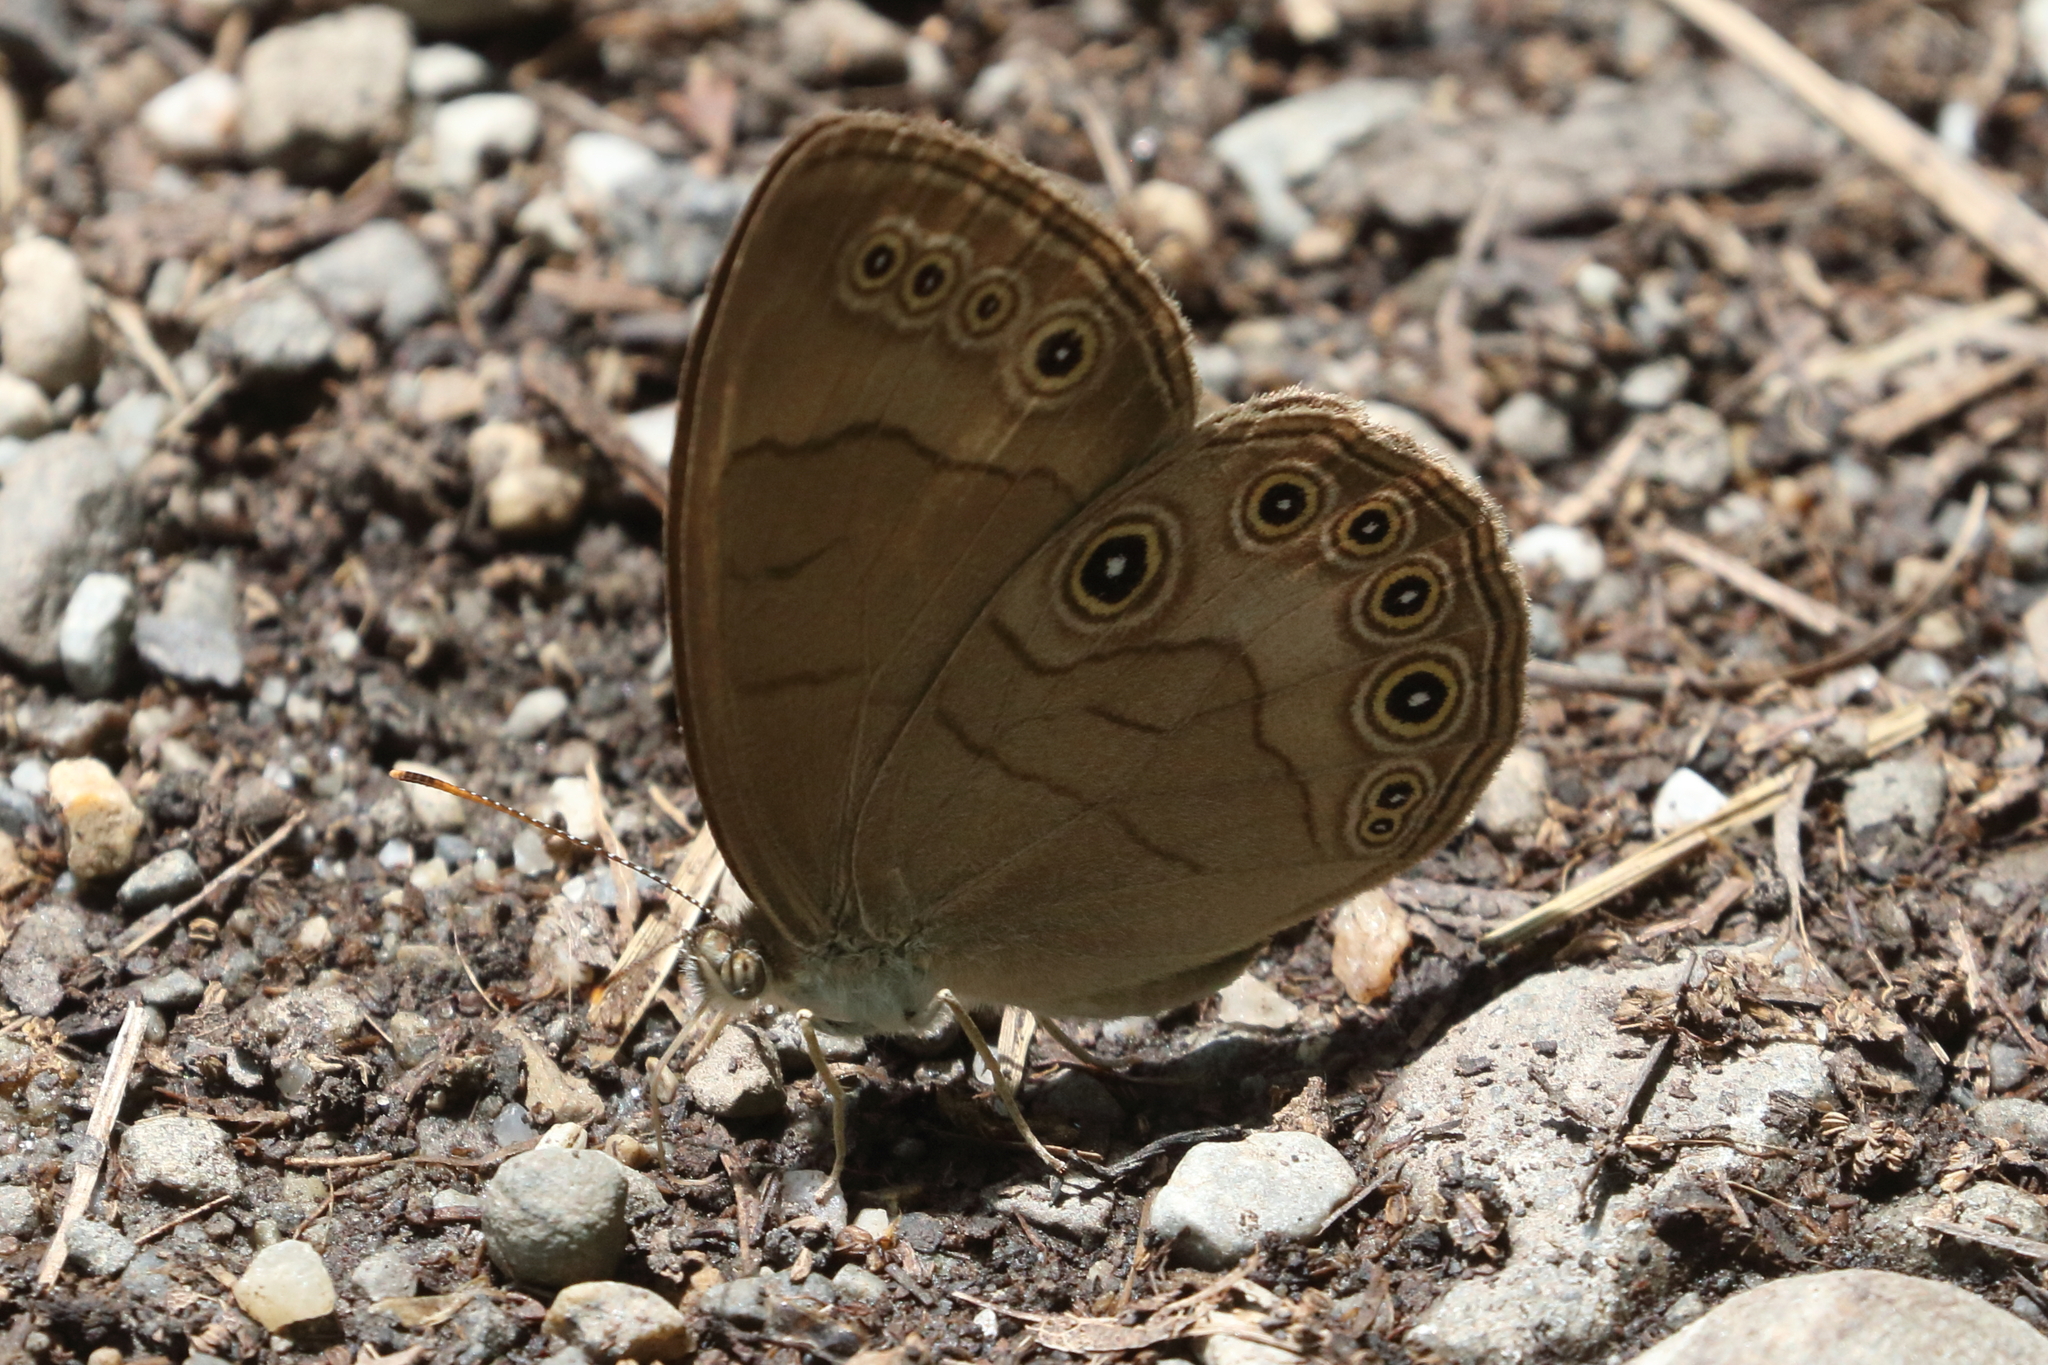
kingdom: Animalia
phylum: Arthropoda
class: Insecta
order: Lepidoptera
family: Nymphalidae
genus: Lethe
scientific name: Lethe eurydice
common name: Eyed brown
